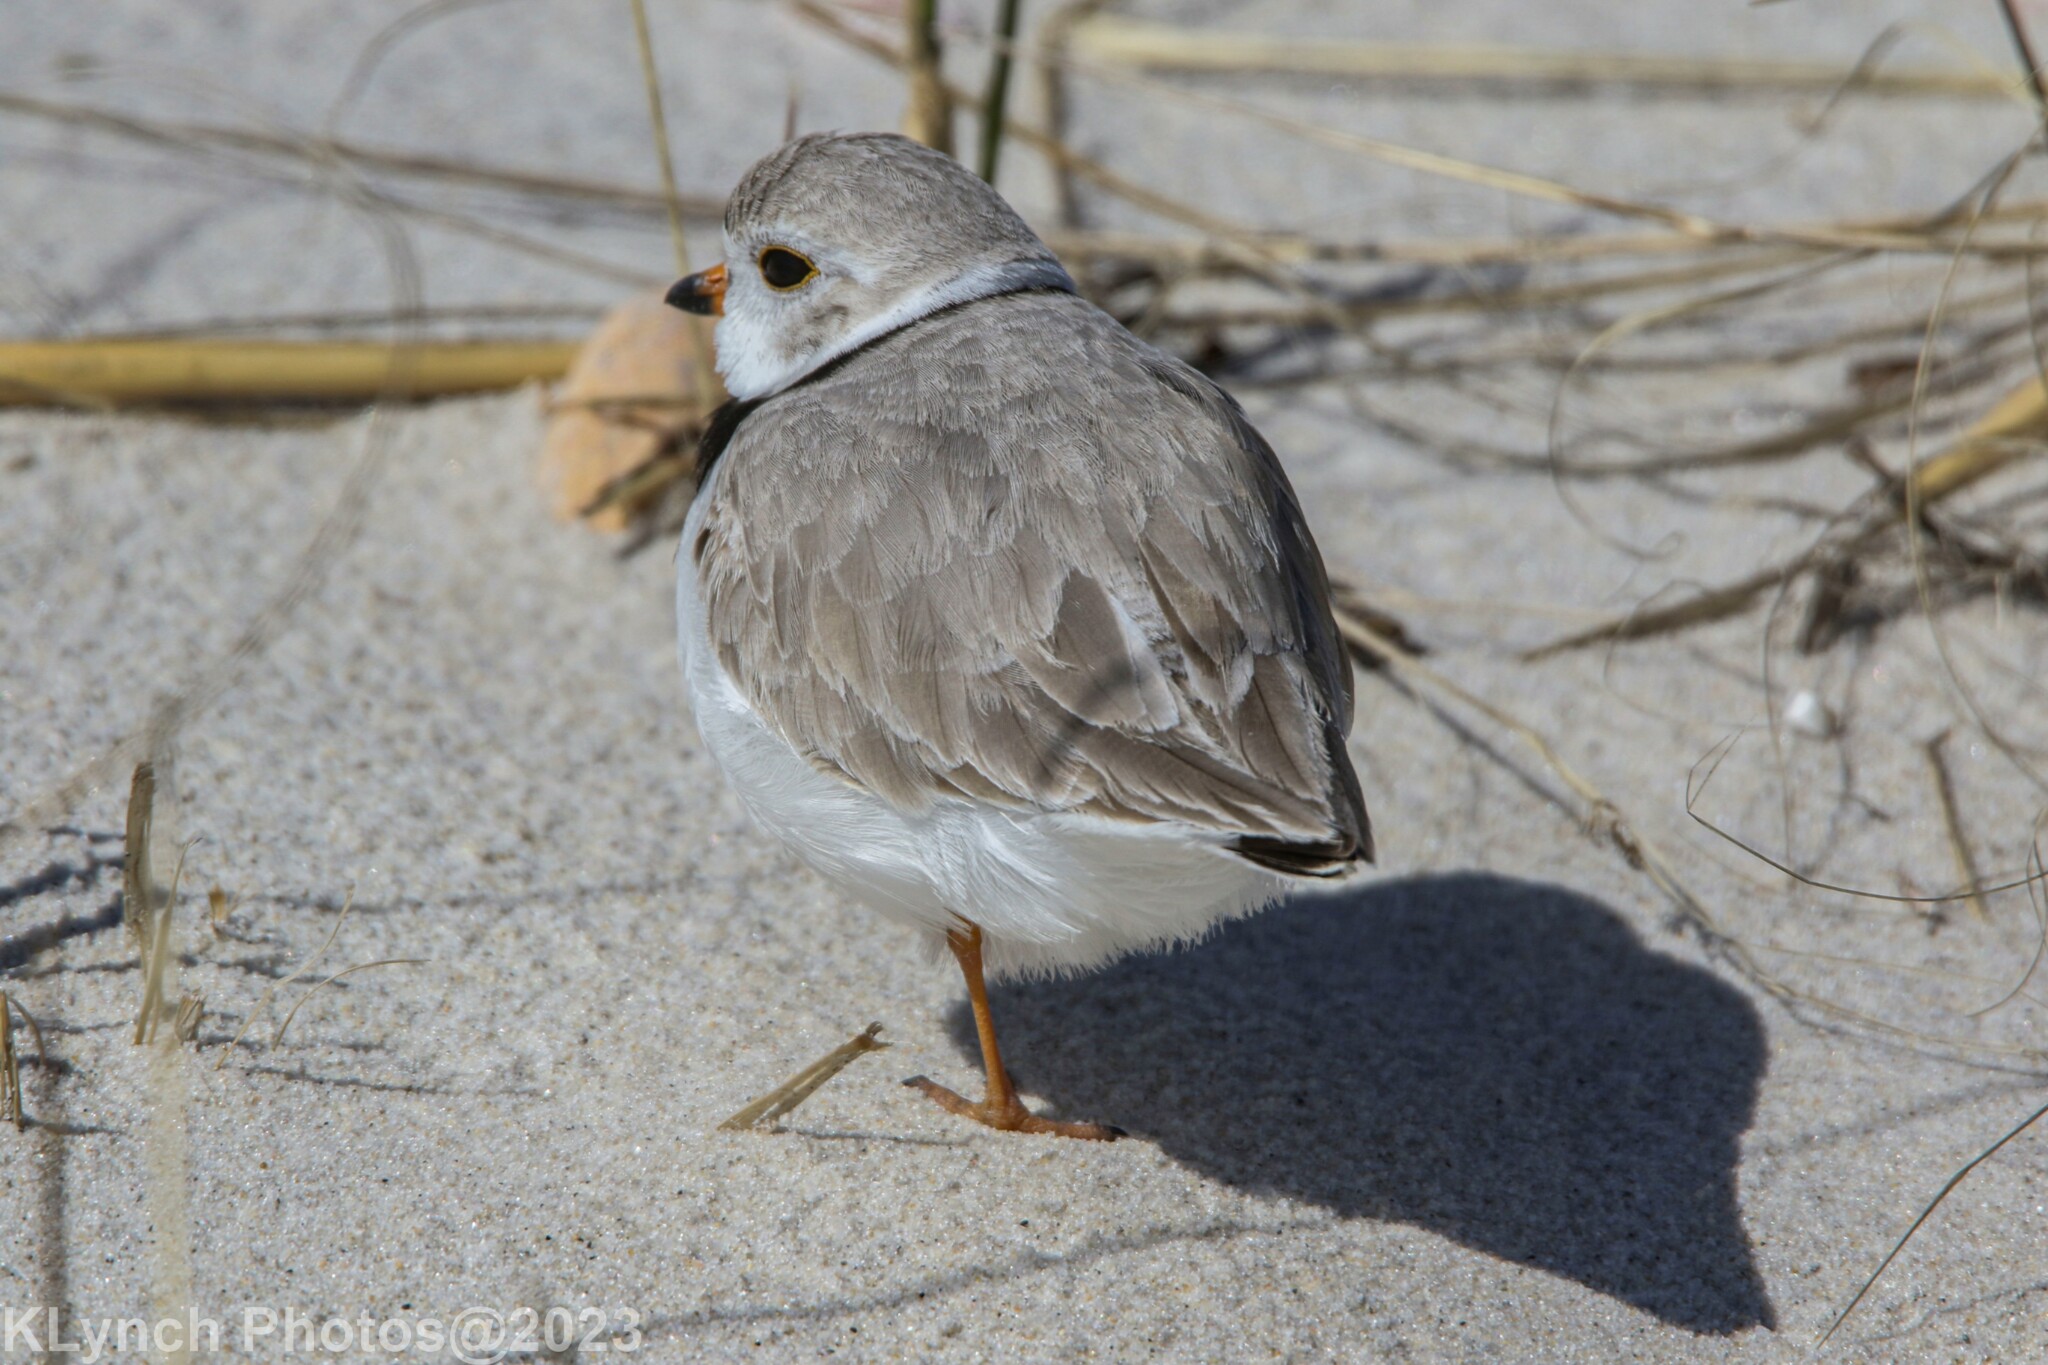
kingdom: Animalia
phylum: Chordata
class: Aves
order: Charadriiformes
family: Charadriidae
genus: Charadrius
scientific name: Charadrius melodus
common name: Piping plover
